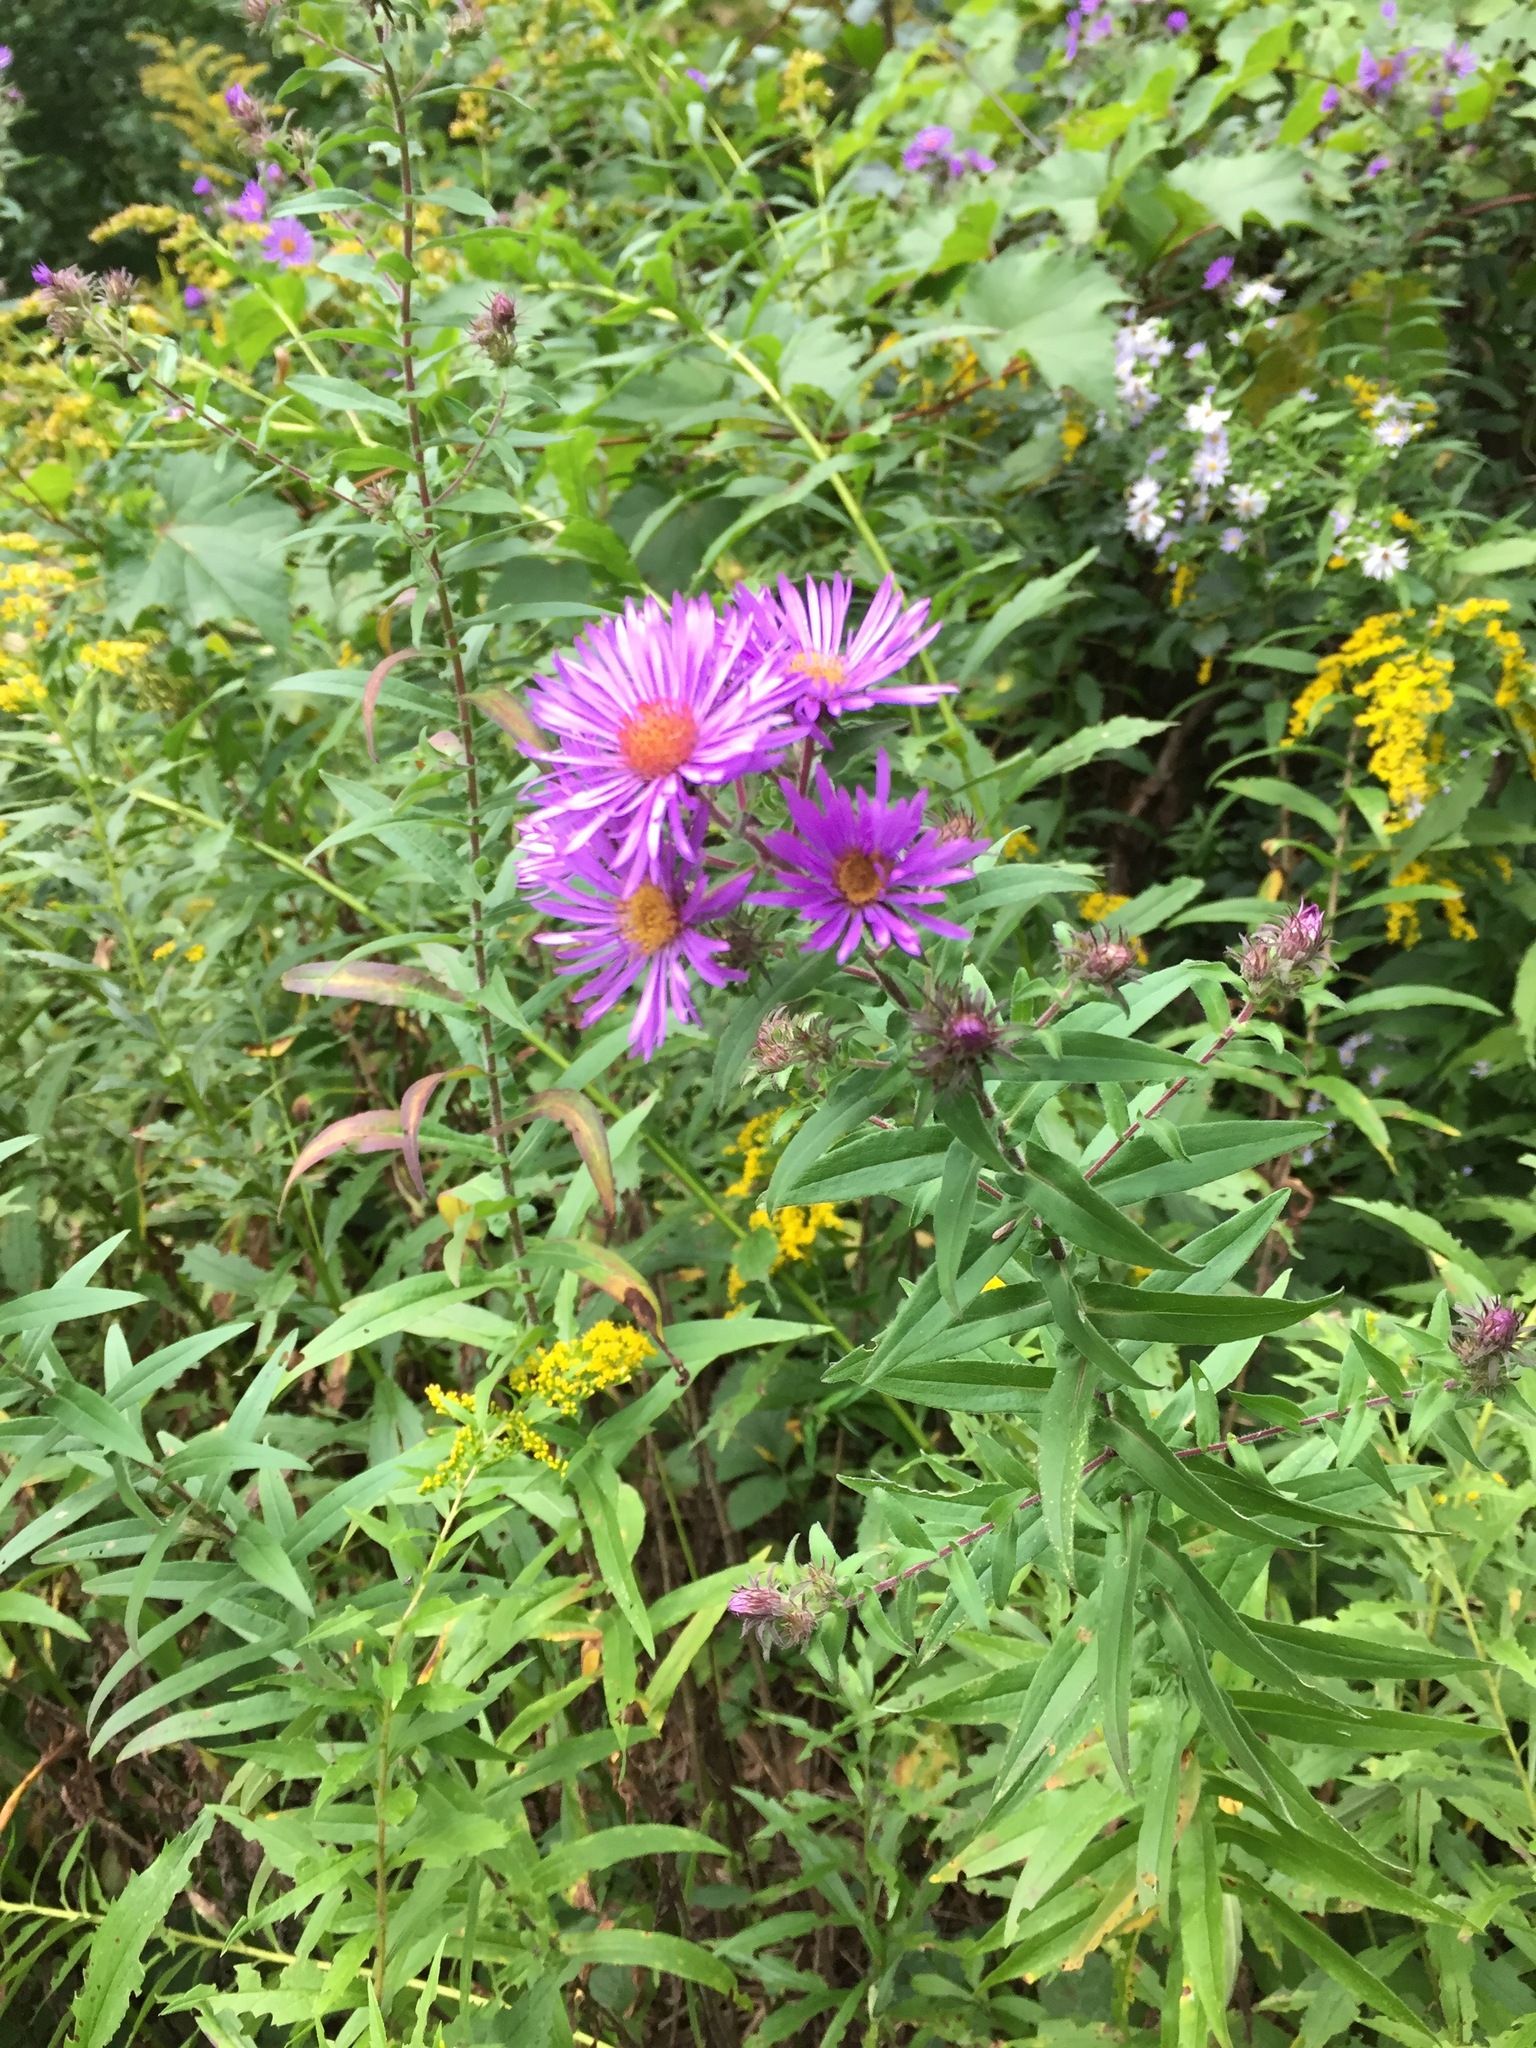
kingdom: Plantae
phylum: Tracheophyta
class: Magnoliopsida
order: Asterales
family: Asteraceae
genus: Symphyotrichum
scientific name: Symphyotrichum novae-angliae
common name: Michaelmas daisy
